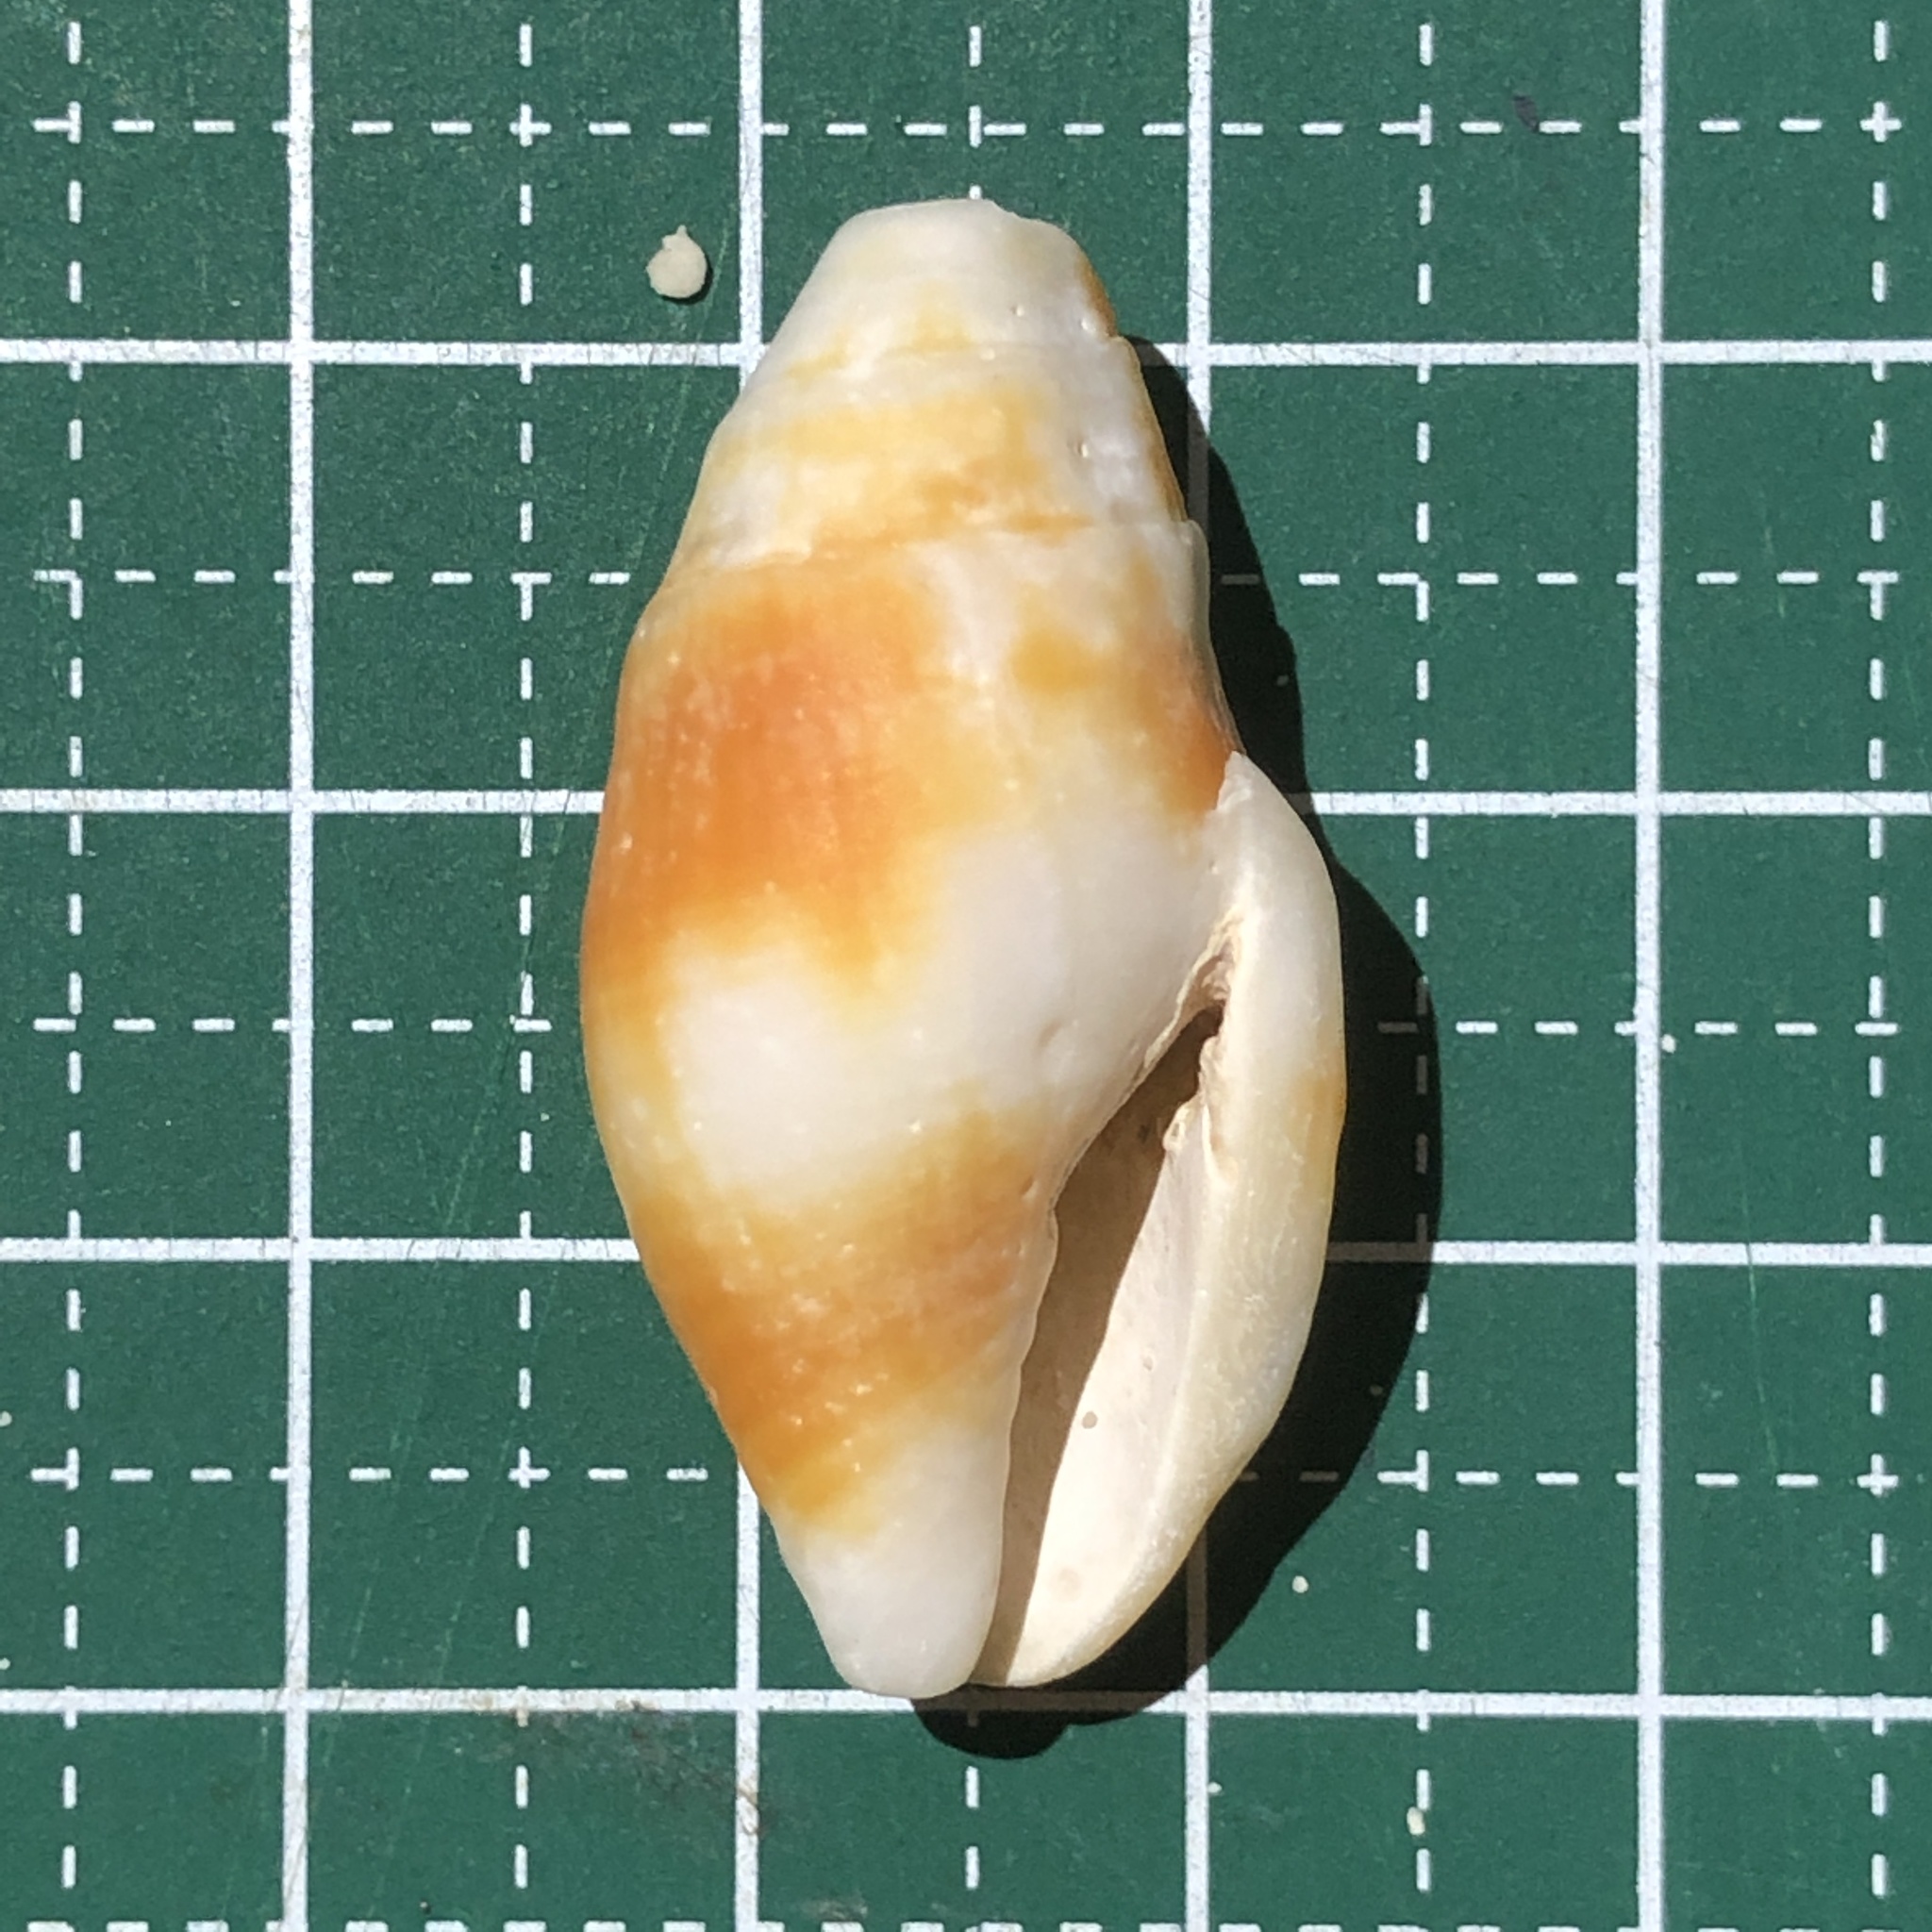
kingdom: Animalia
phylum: Mollusca
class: Gastropoda
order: Neogastropoda
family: Mitridae
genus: Nebularia
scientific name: Nebularia chrysostoma
